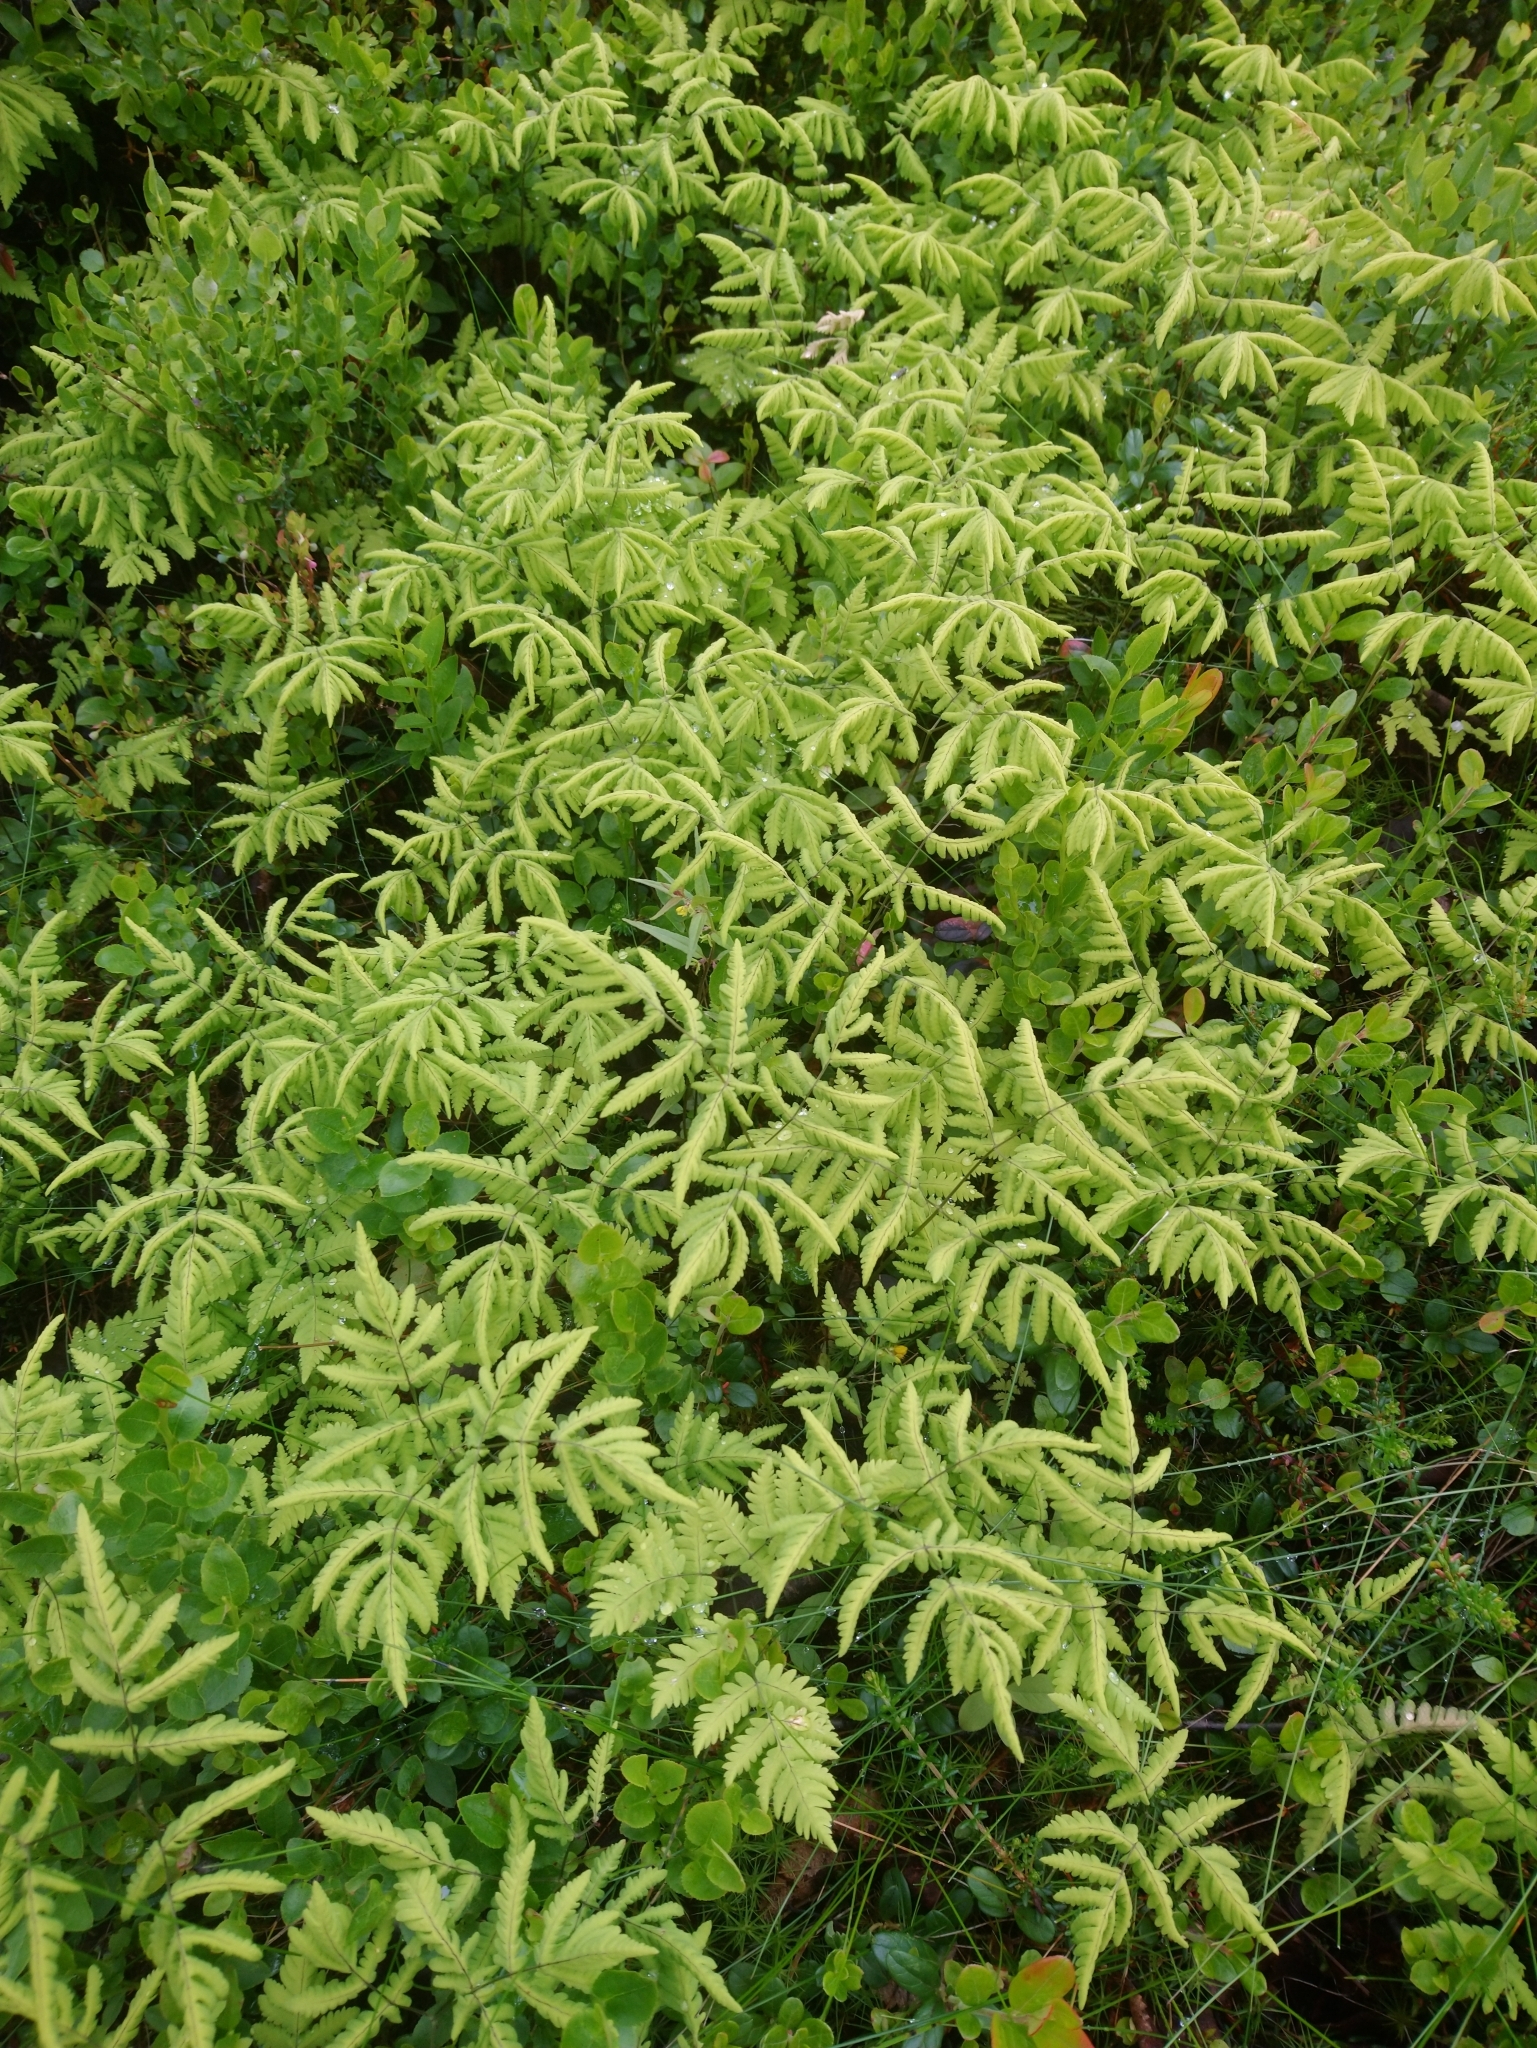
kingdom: Plantae
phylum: Tracheophyta
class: Polypodiopsida
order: Polypodiales
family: Cystopteridaceae
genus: Gymnocarpium
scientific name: Gymnocarpium dryopteris
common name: Oak fern
